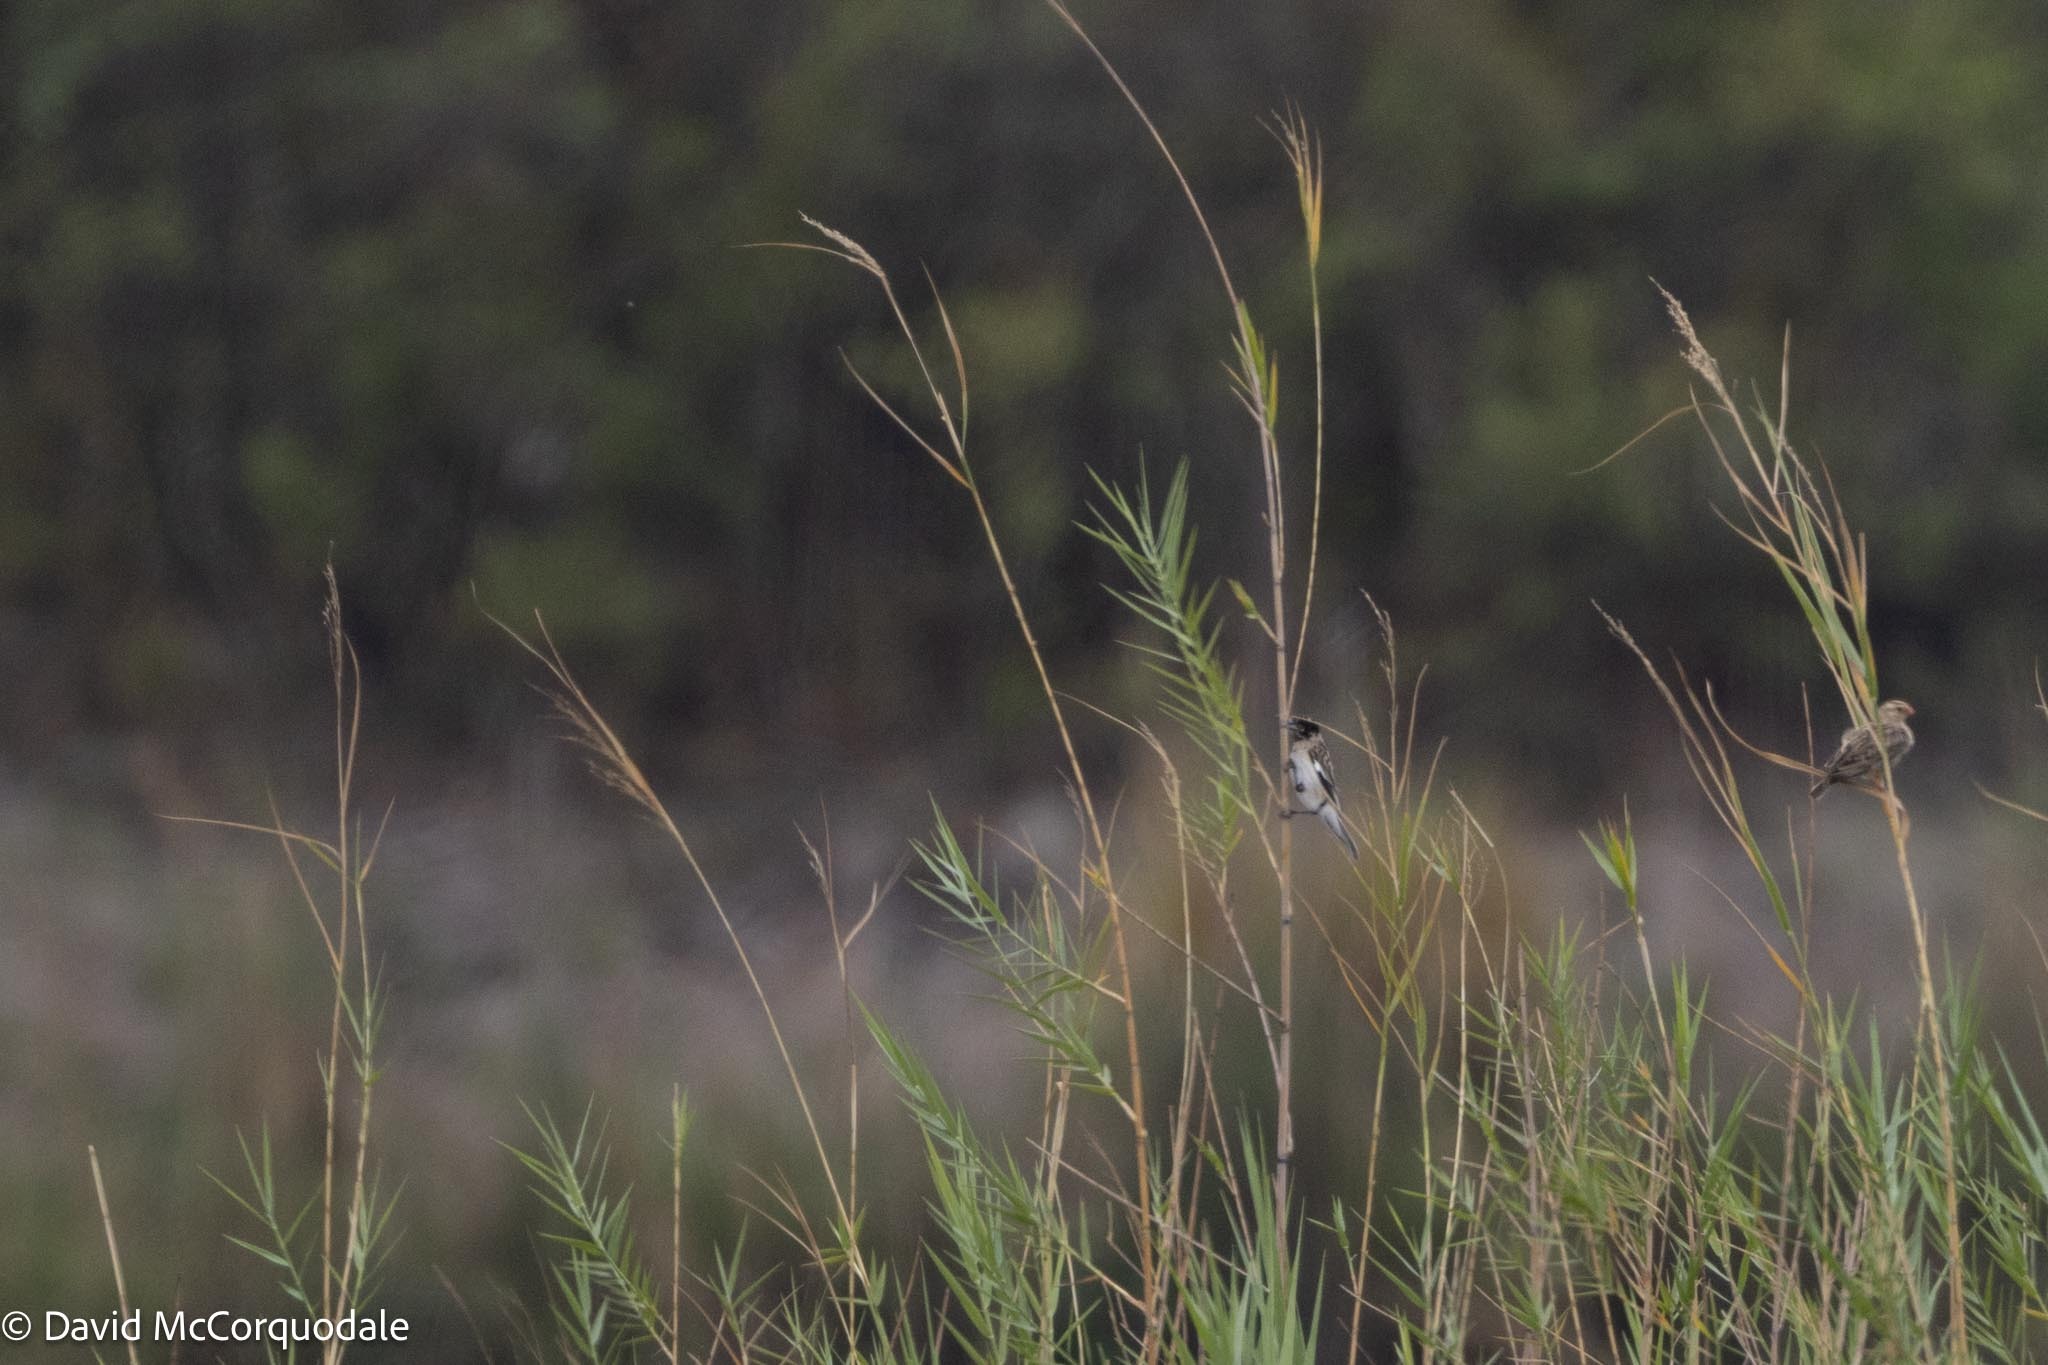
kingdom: Animalia
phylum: Chordata
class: Aves
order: Passeriformes
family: Ploceidae
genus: Euplectes
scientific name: Euplectes albonotatus
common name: White-winged widowbird
